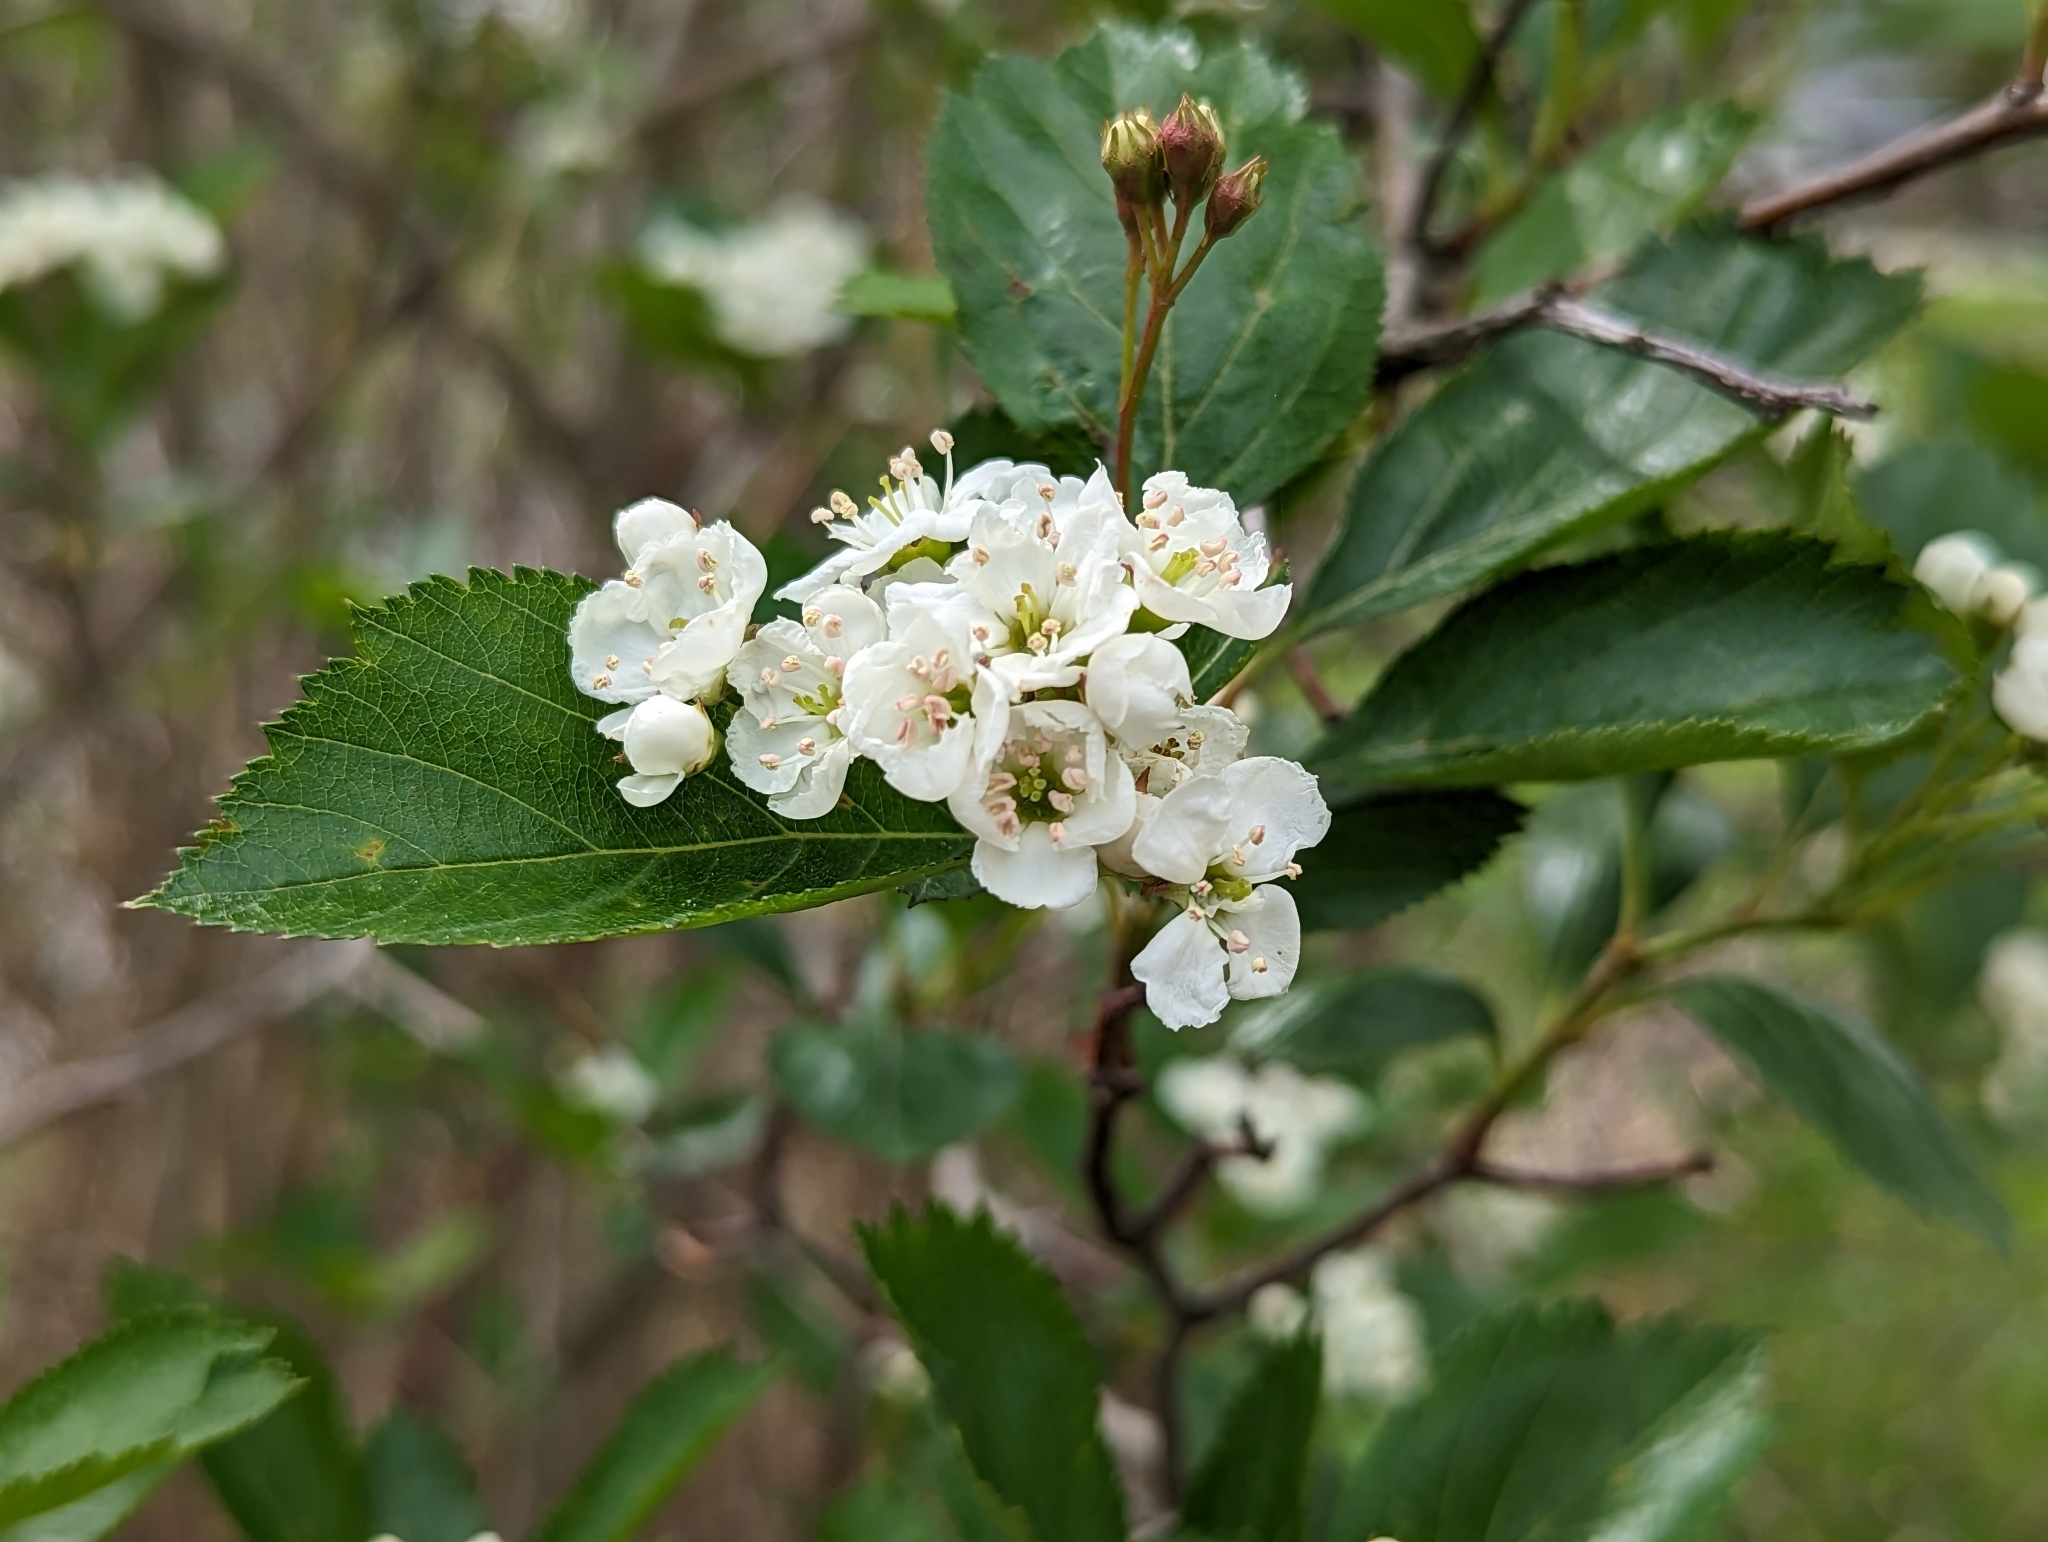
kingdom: Plantae
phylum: Tracheophyta
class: Magnoliopsida
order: Rosales
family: Rosaceae
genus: Crataegus
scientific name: Crataegus douglasii
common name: Black hawthorn
